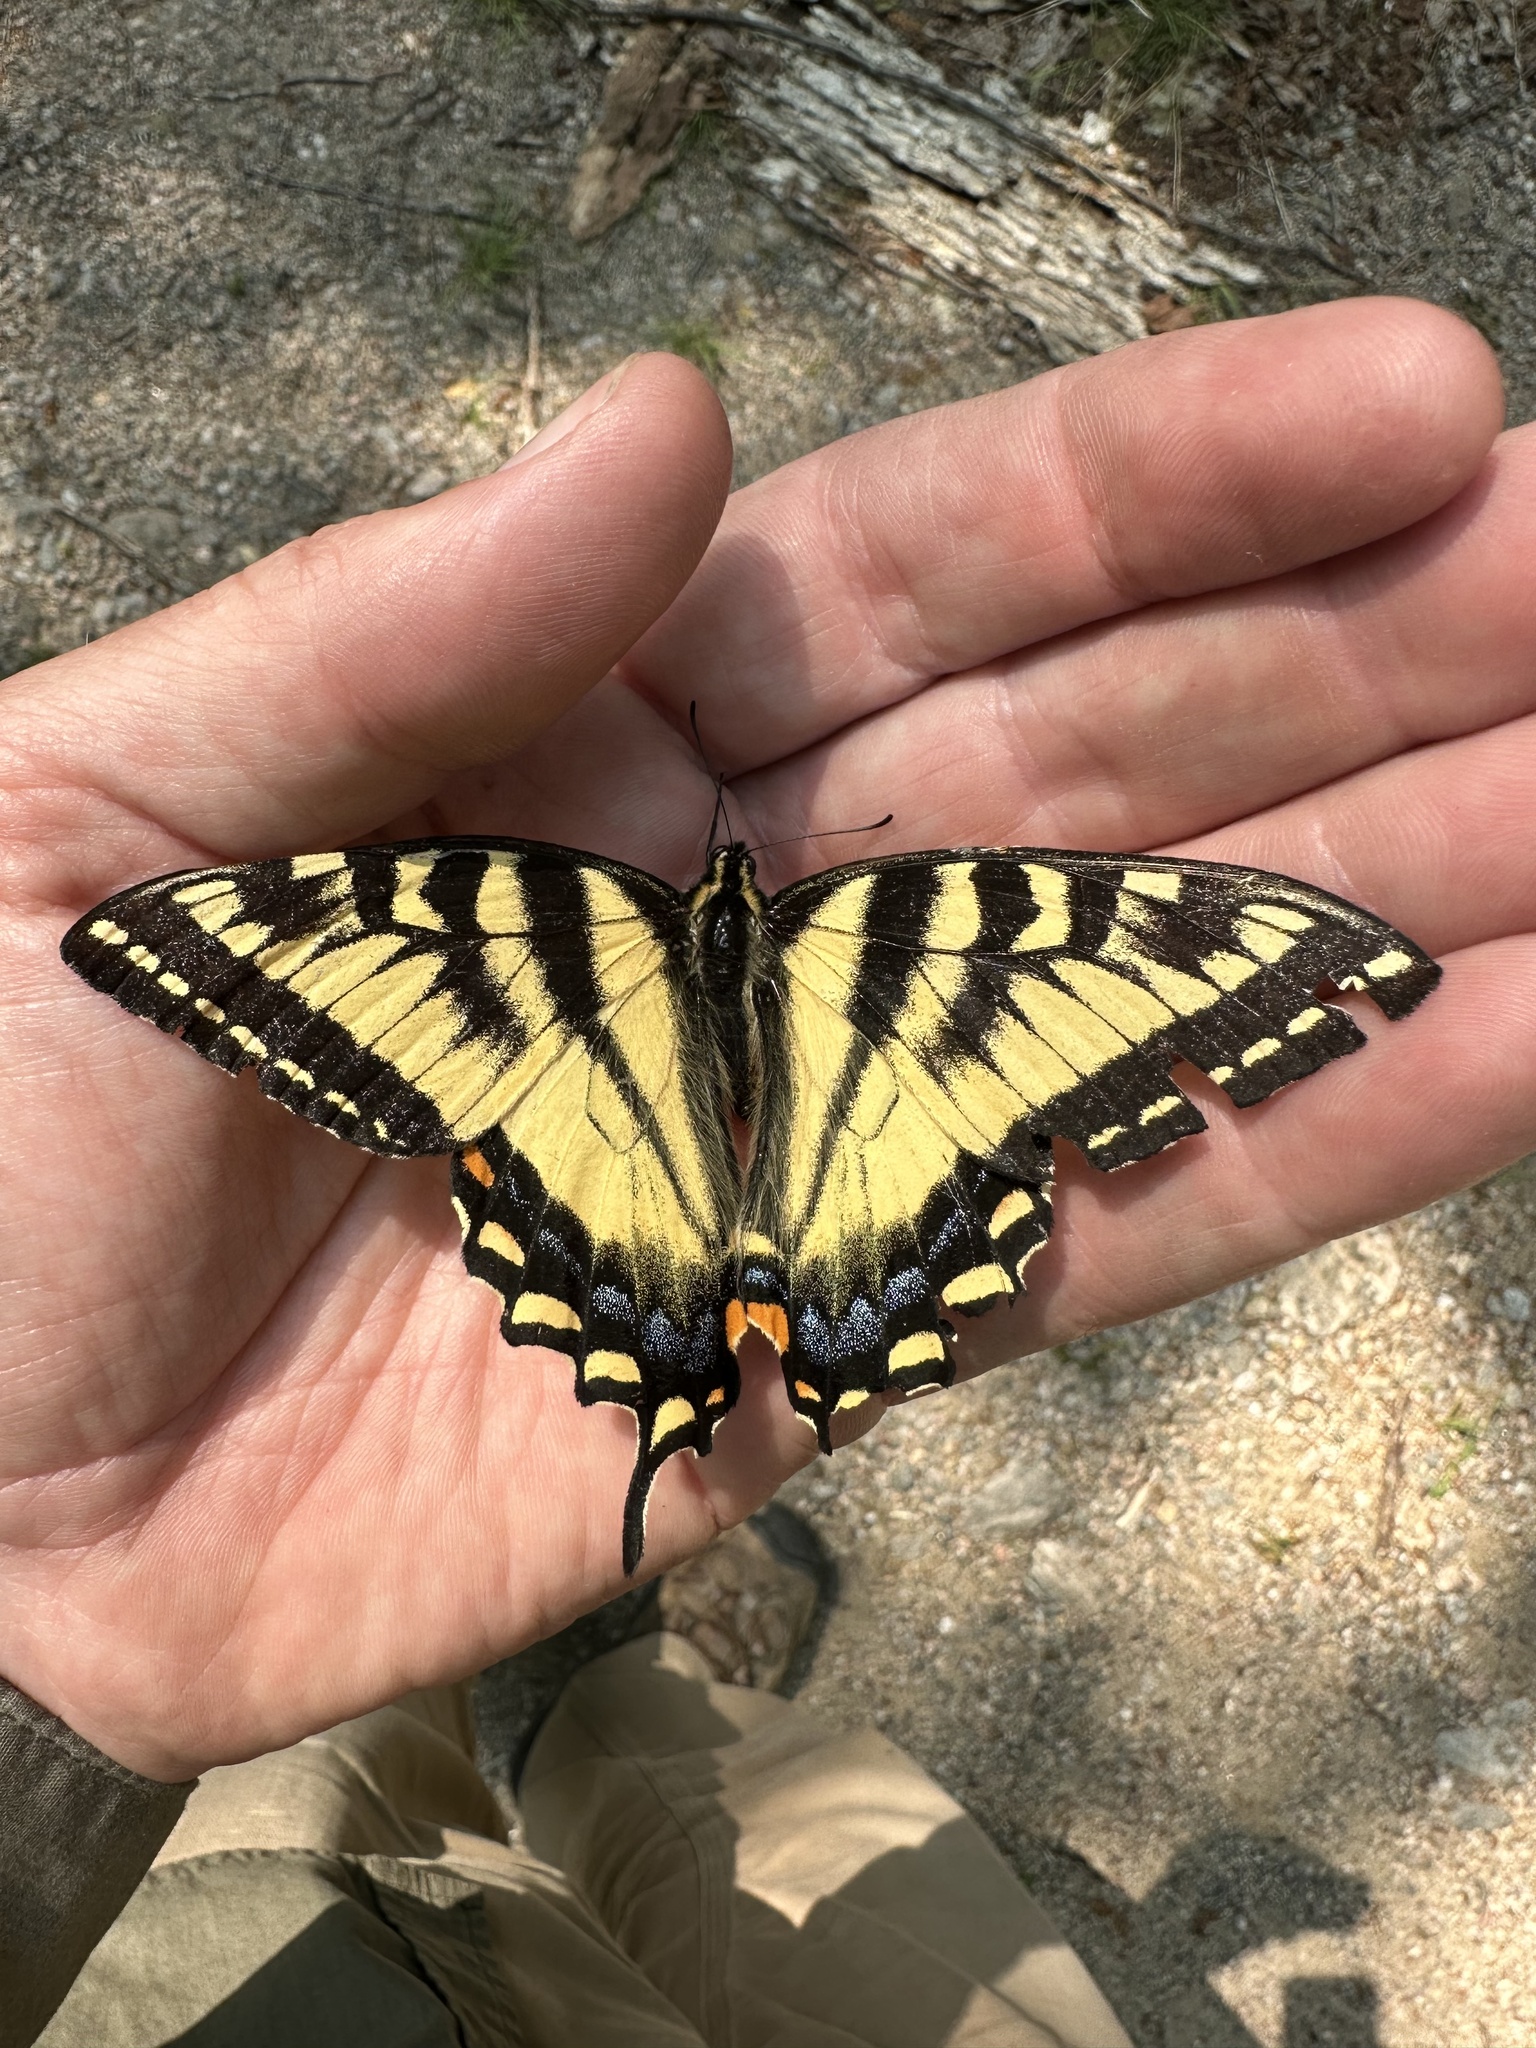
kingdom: Animalia
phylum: Arthropoda
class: Insecta
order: Lepidoptera
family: Papilionidae
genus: Papilio
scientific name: Papilio canadensis
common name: Canadian tiger swallowtail
